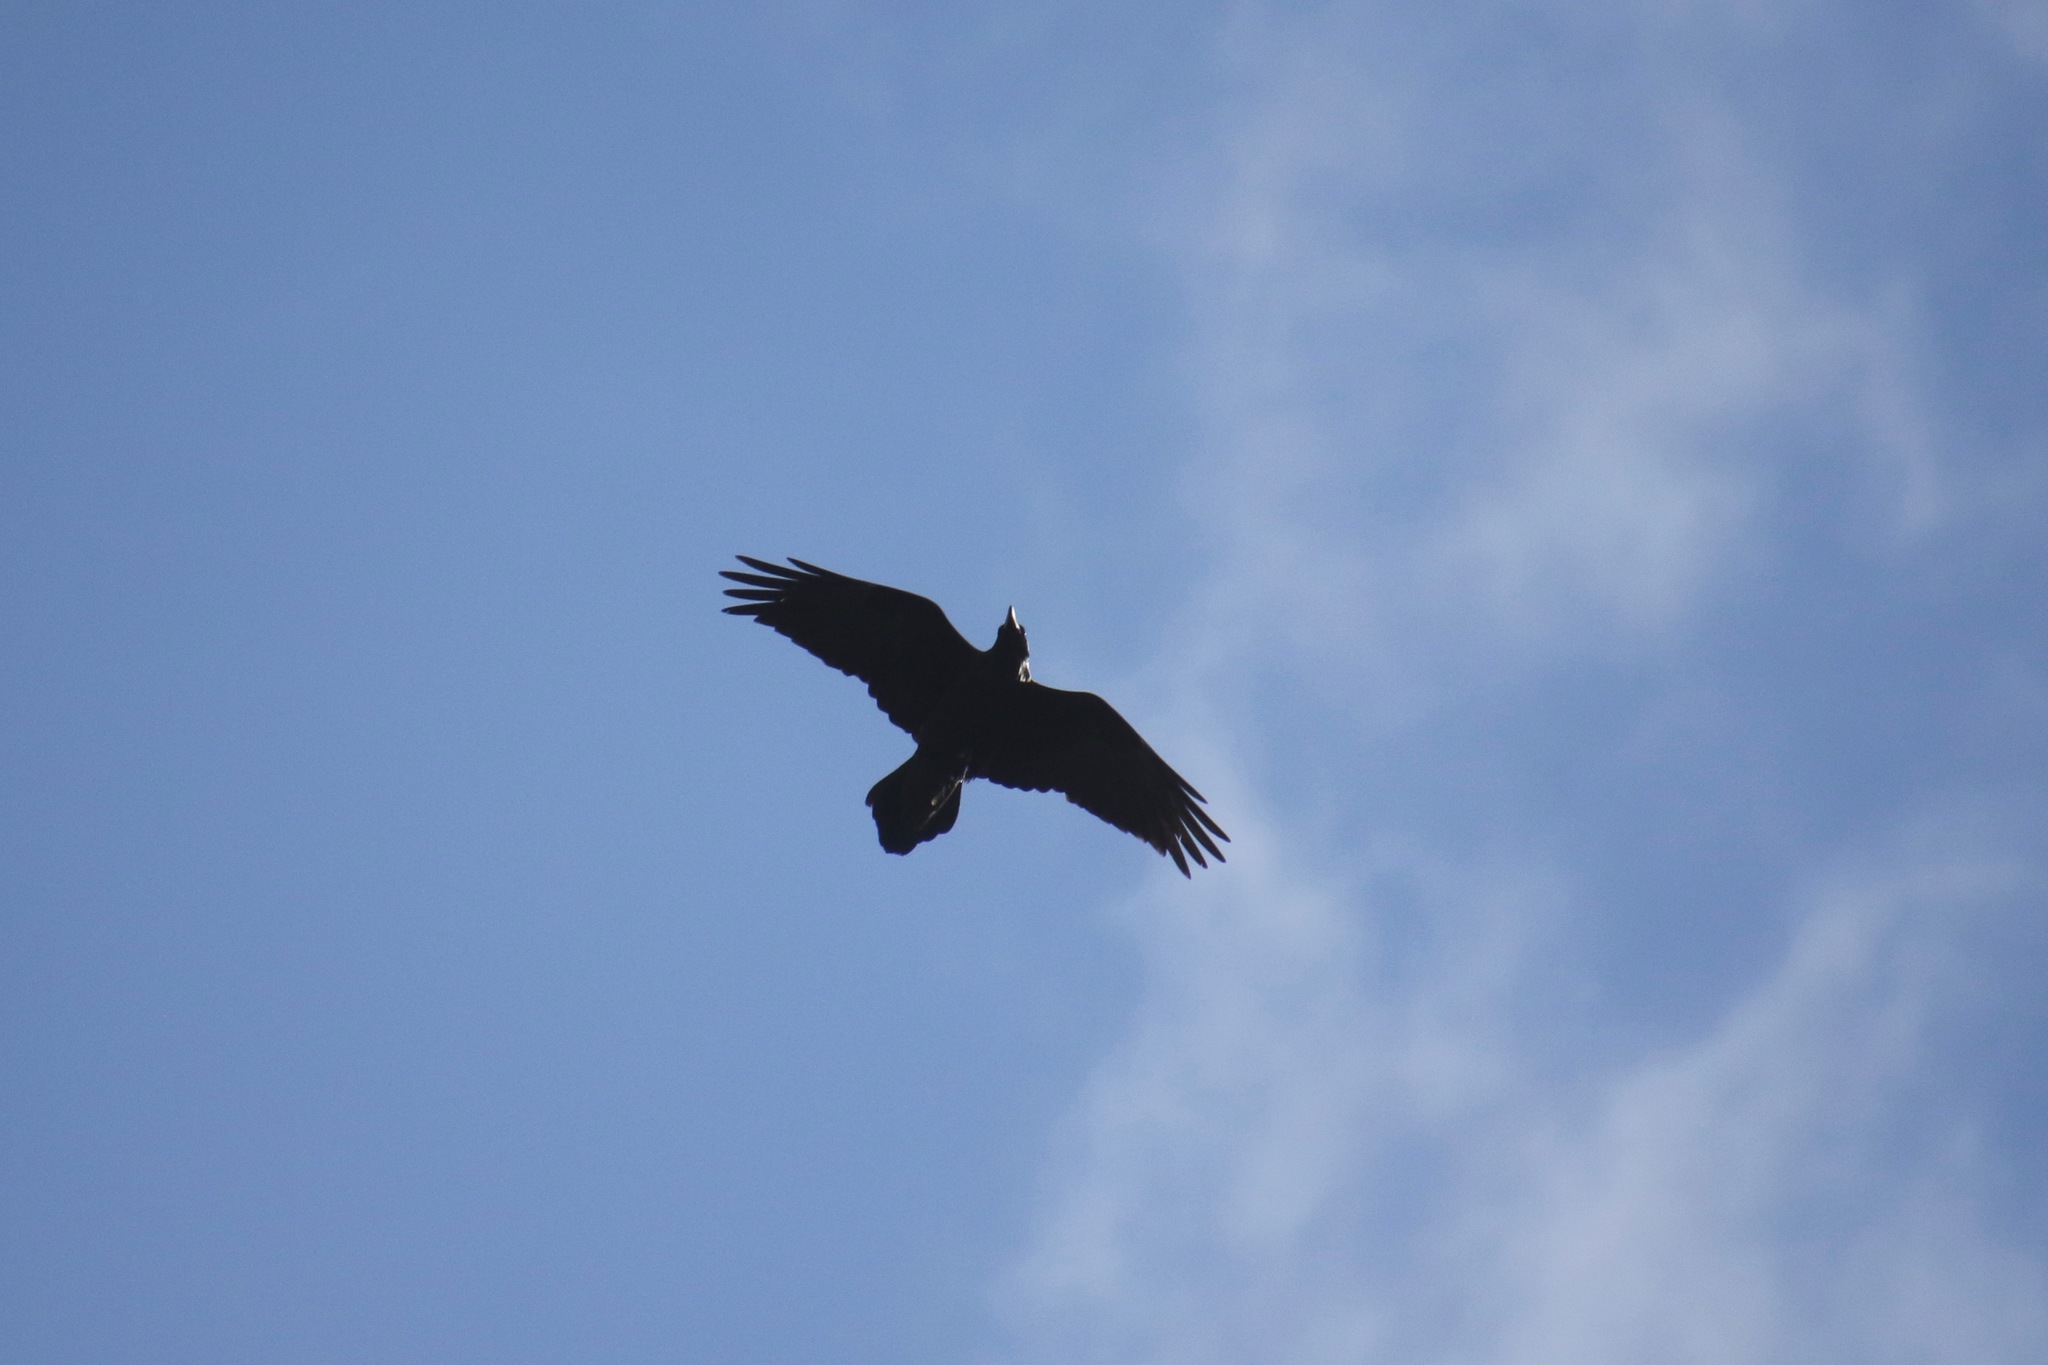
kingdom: Animalia
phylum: Chordata
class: Aves
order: Passeriformes
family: Corvidae
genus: Corvus
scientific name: Corvus corax
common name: Common raven
